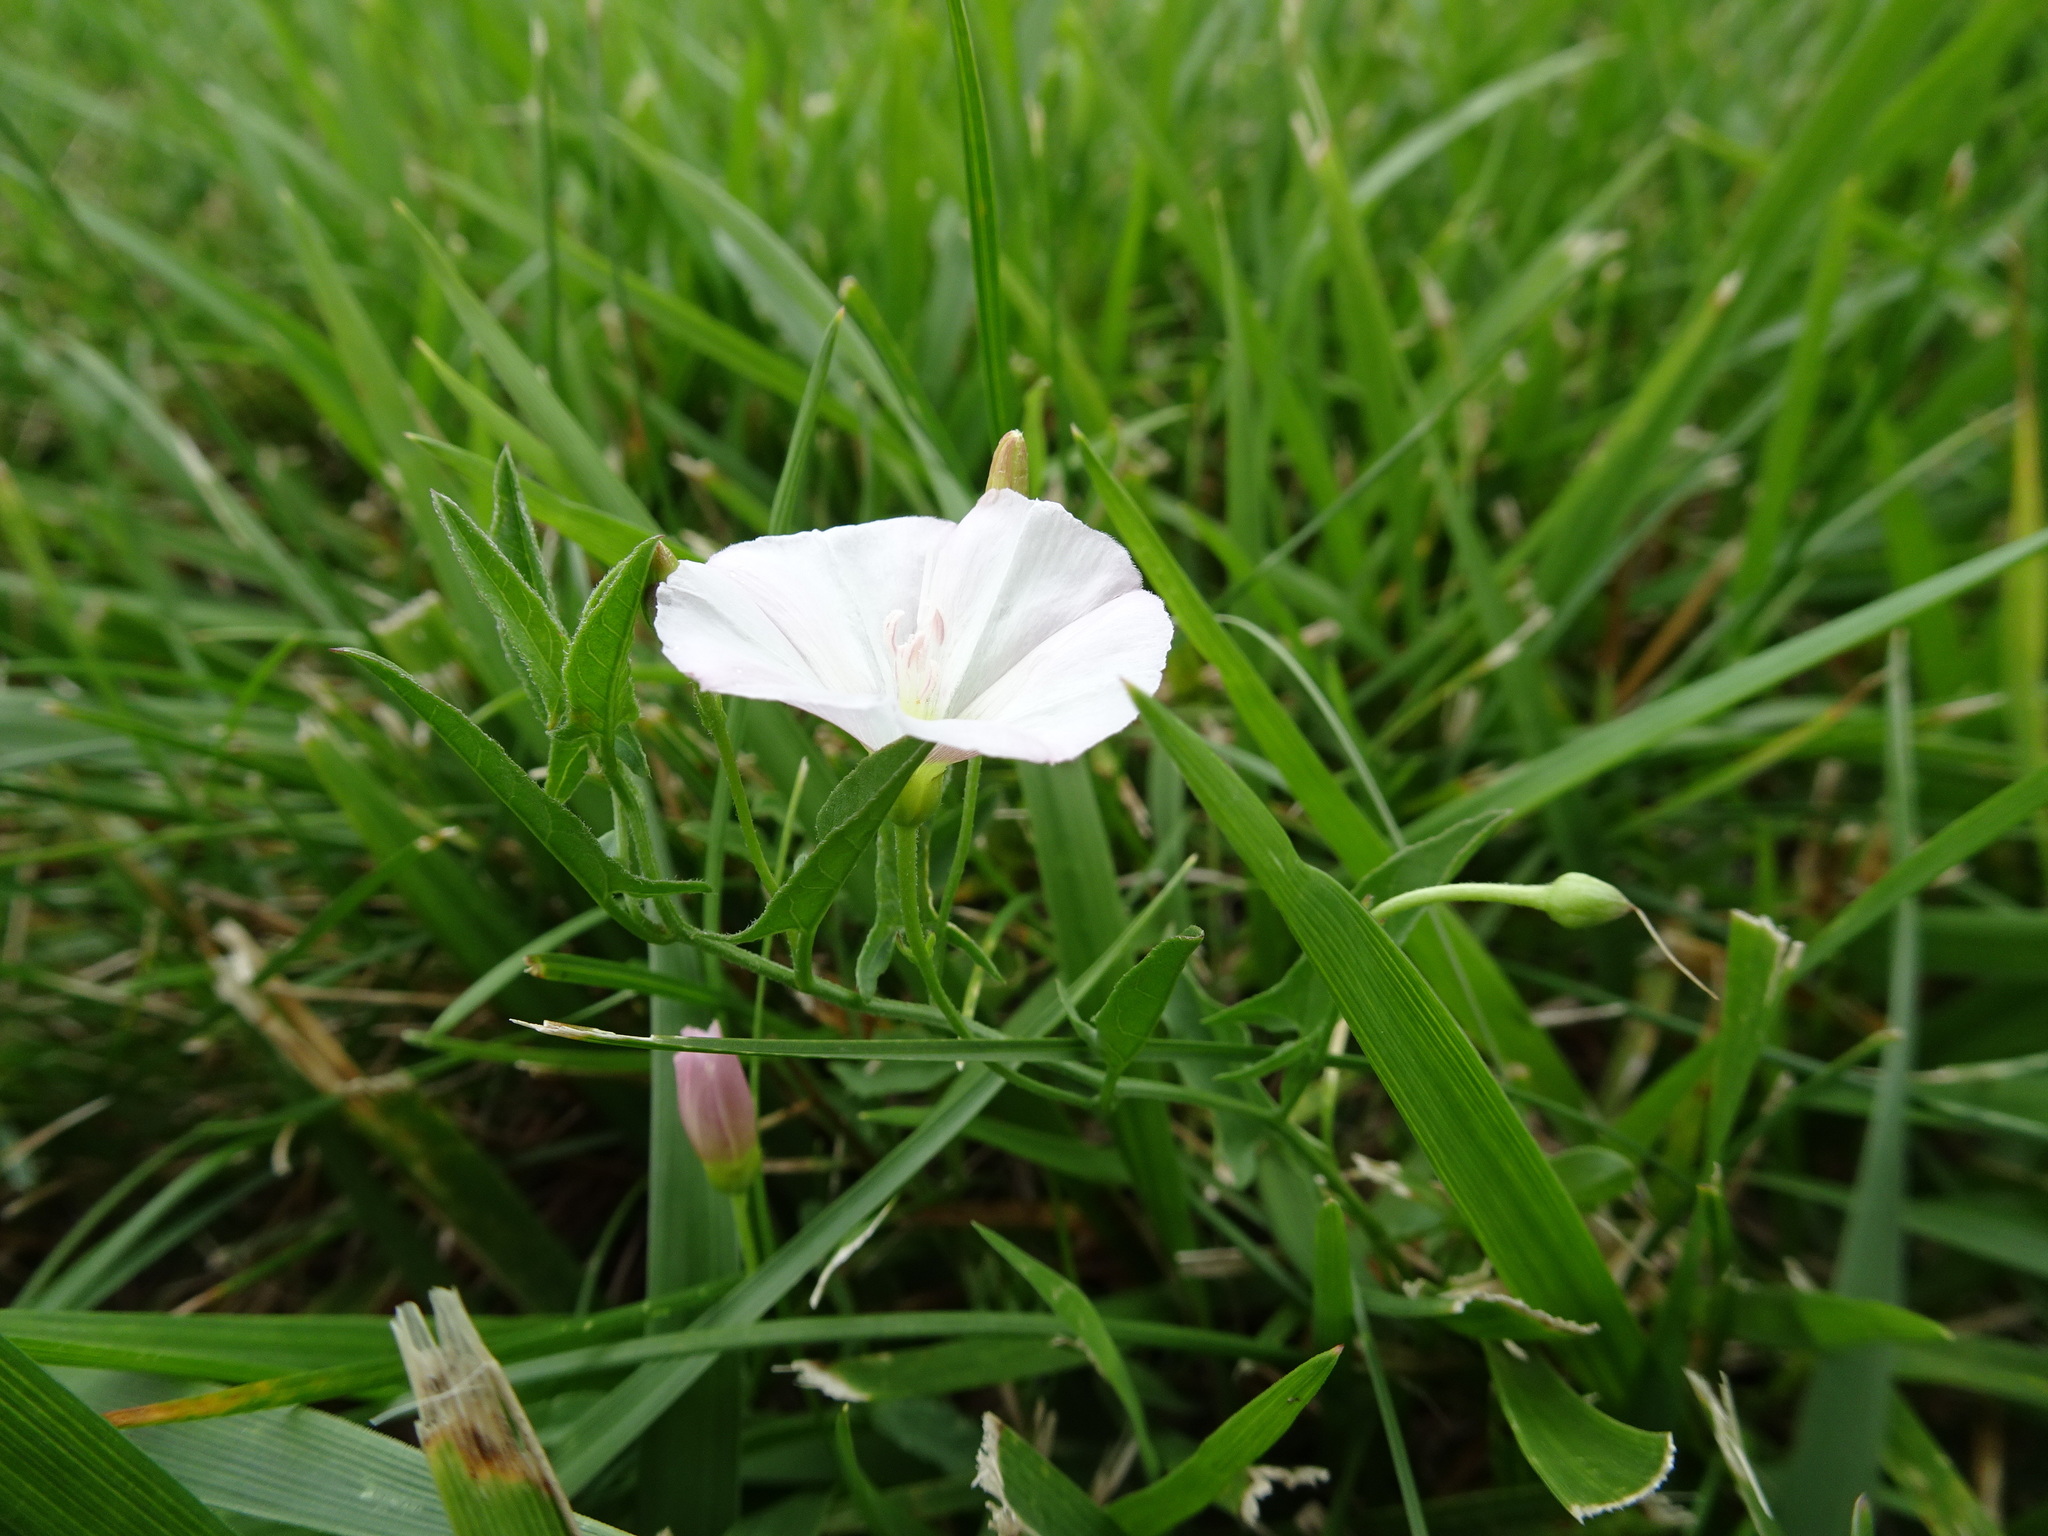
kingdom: Plantae
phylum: Tracheophyta
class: Magnoliopsida
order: Solanales
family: Convolvulaceae
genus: Convolvulus
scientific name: Convolvulus arvensis
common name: Field bindweed
